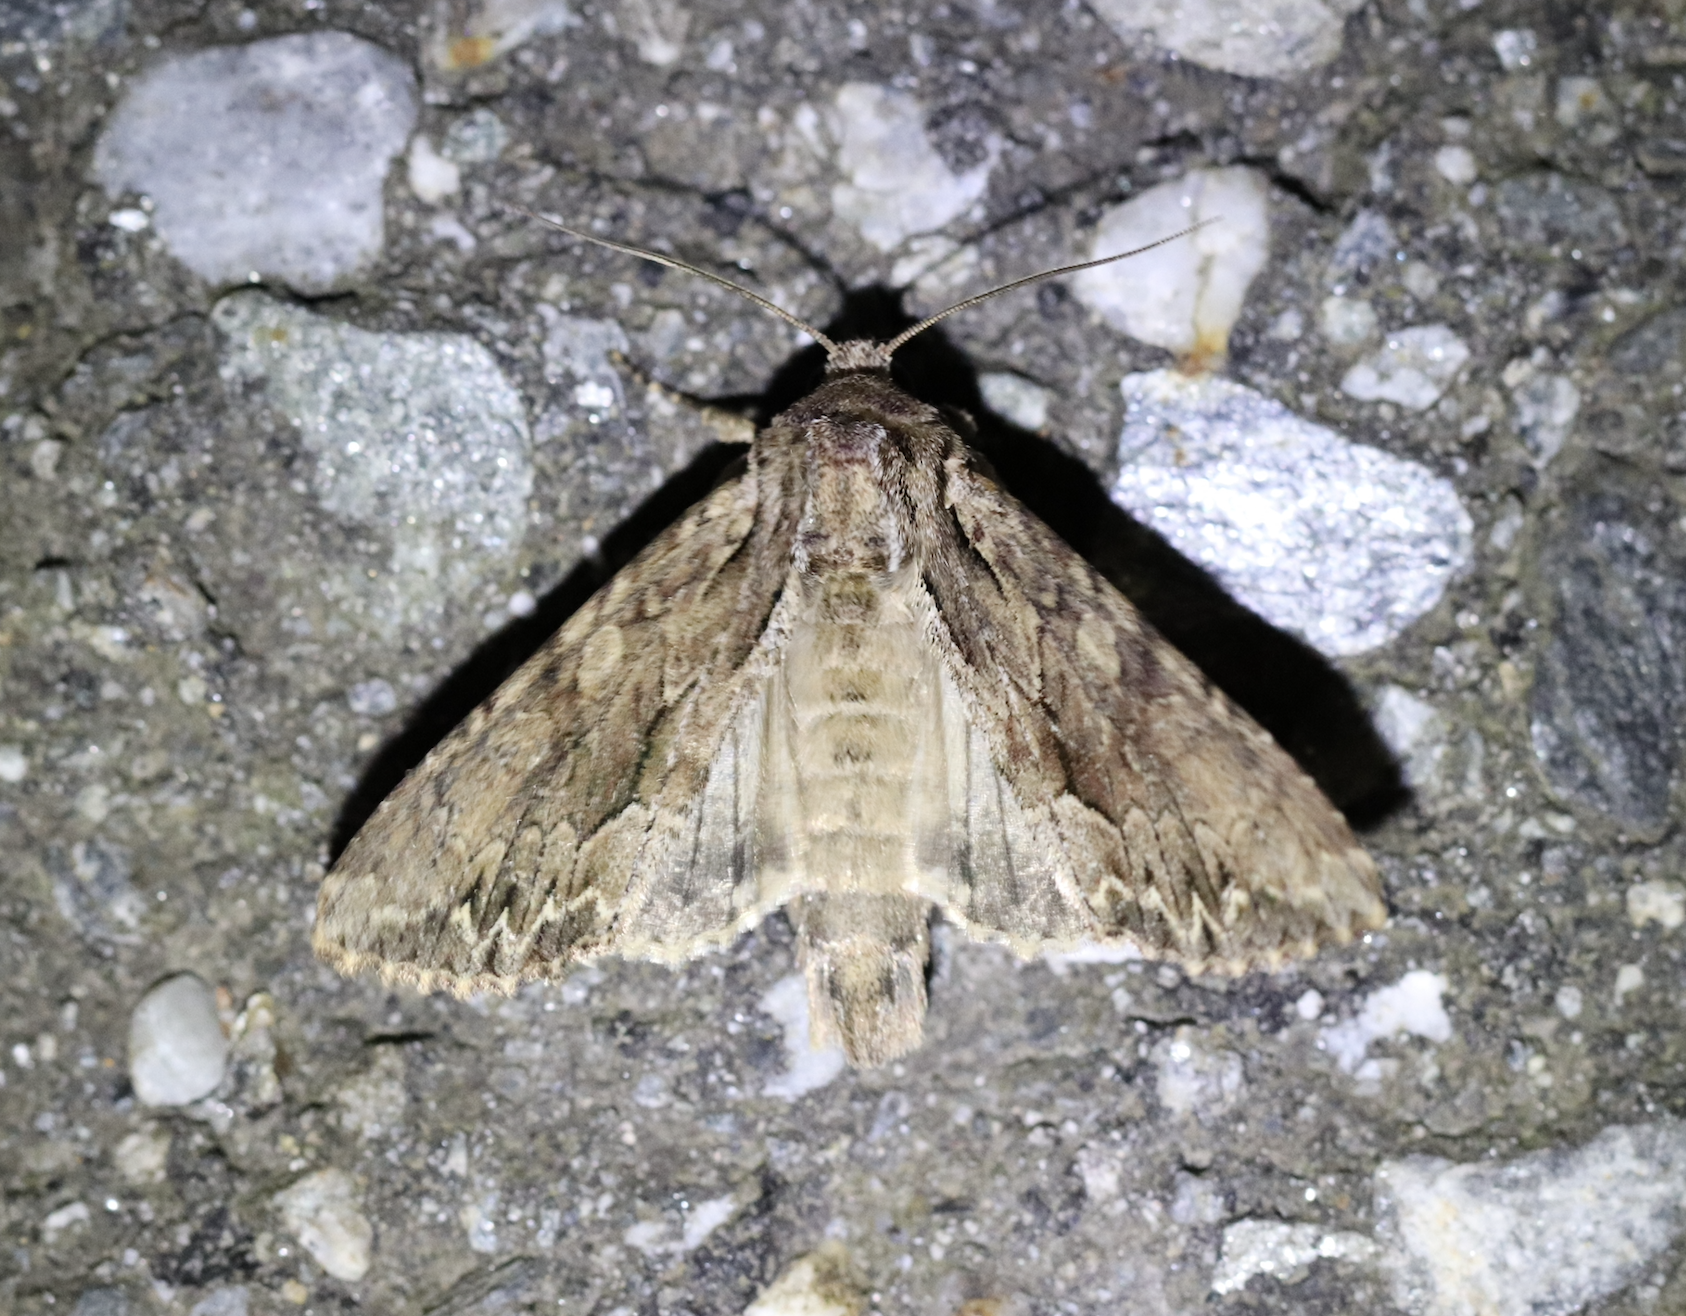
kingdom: Animalia
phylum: Arthropoda
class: Insecta
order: Lepidoptera
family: Noctuidae
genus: Apamea
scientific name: Apamea monoglypha
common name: Dark arches
